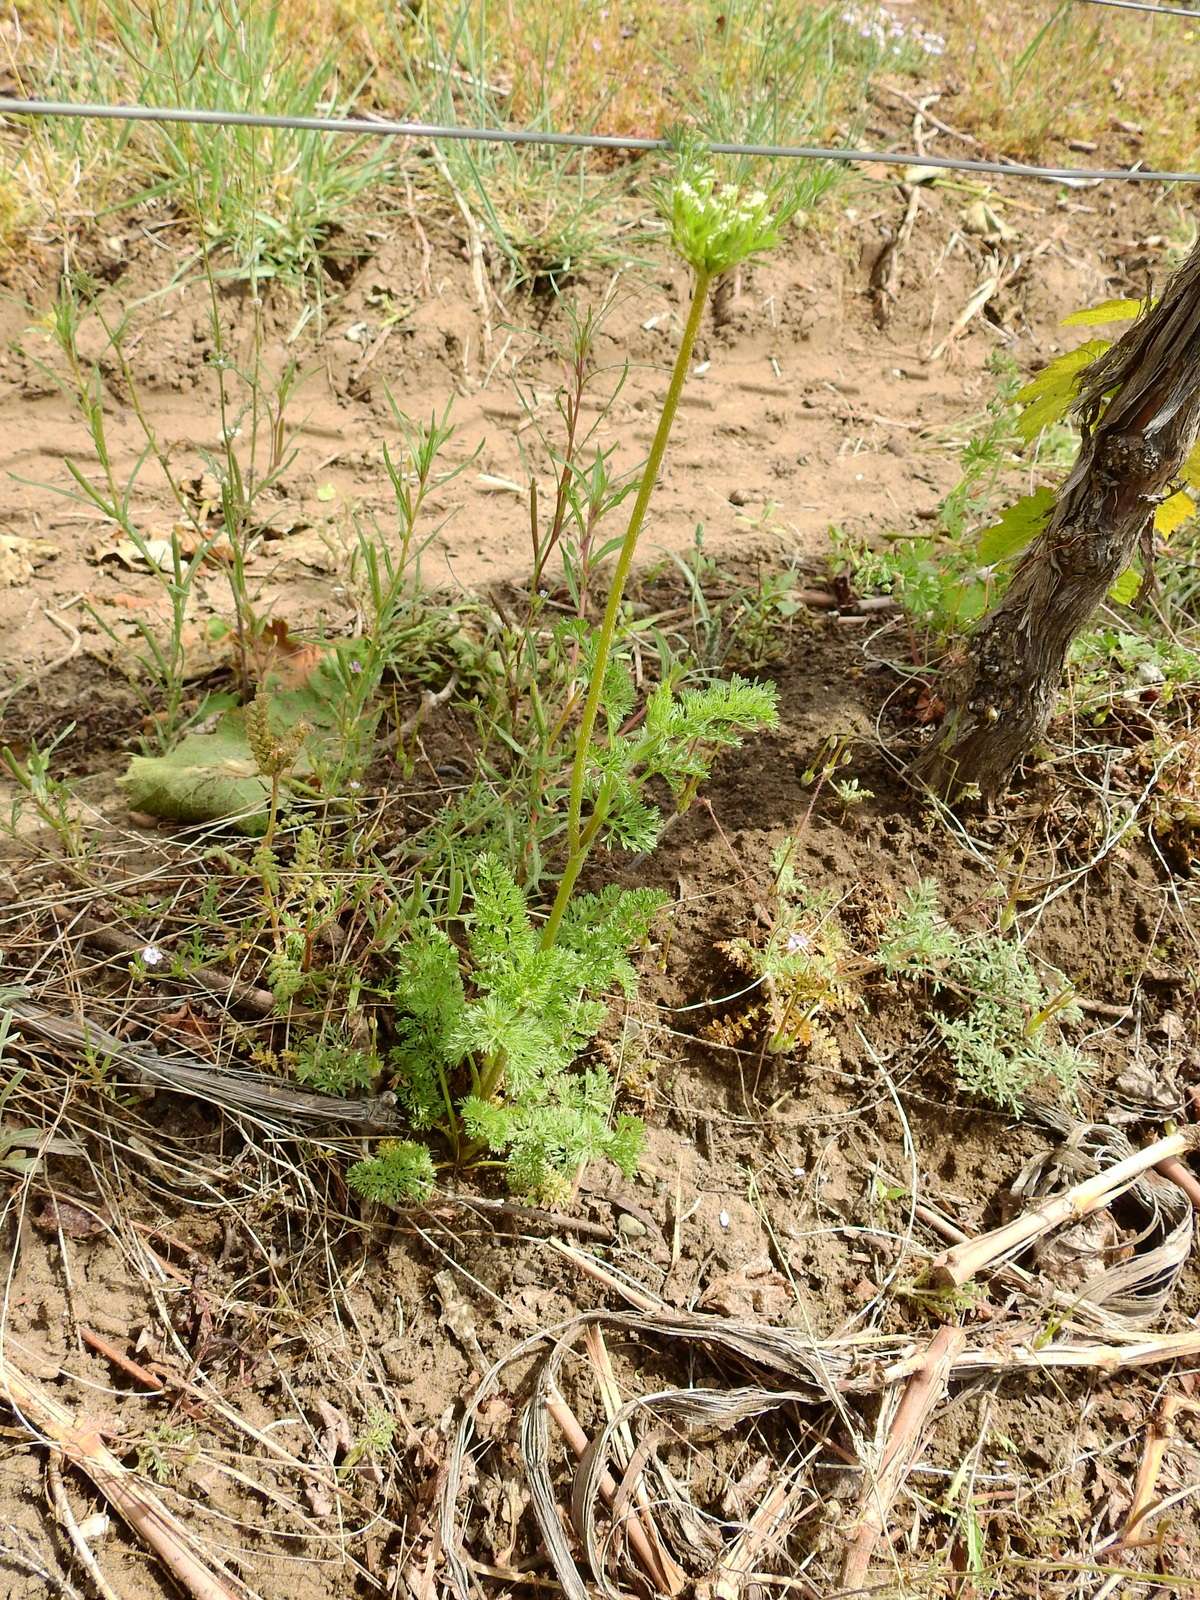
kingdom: Plantae
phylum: Tracheophyta
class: Magnoliopsida
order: Apiales
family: Apiaceae
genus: Daucus
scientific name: Daucus pusillus
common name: Southwest wild carrot
